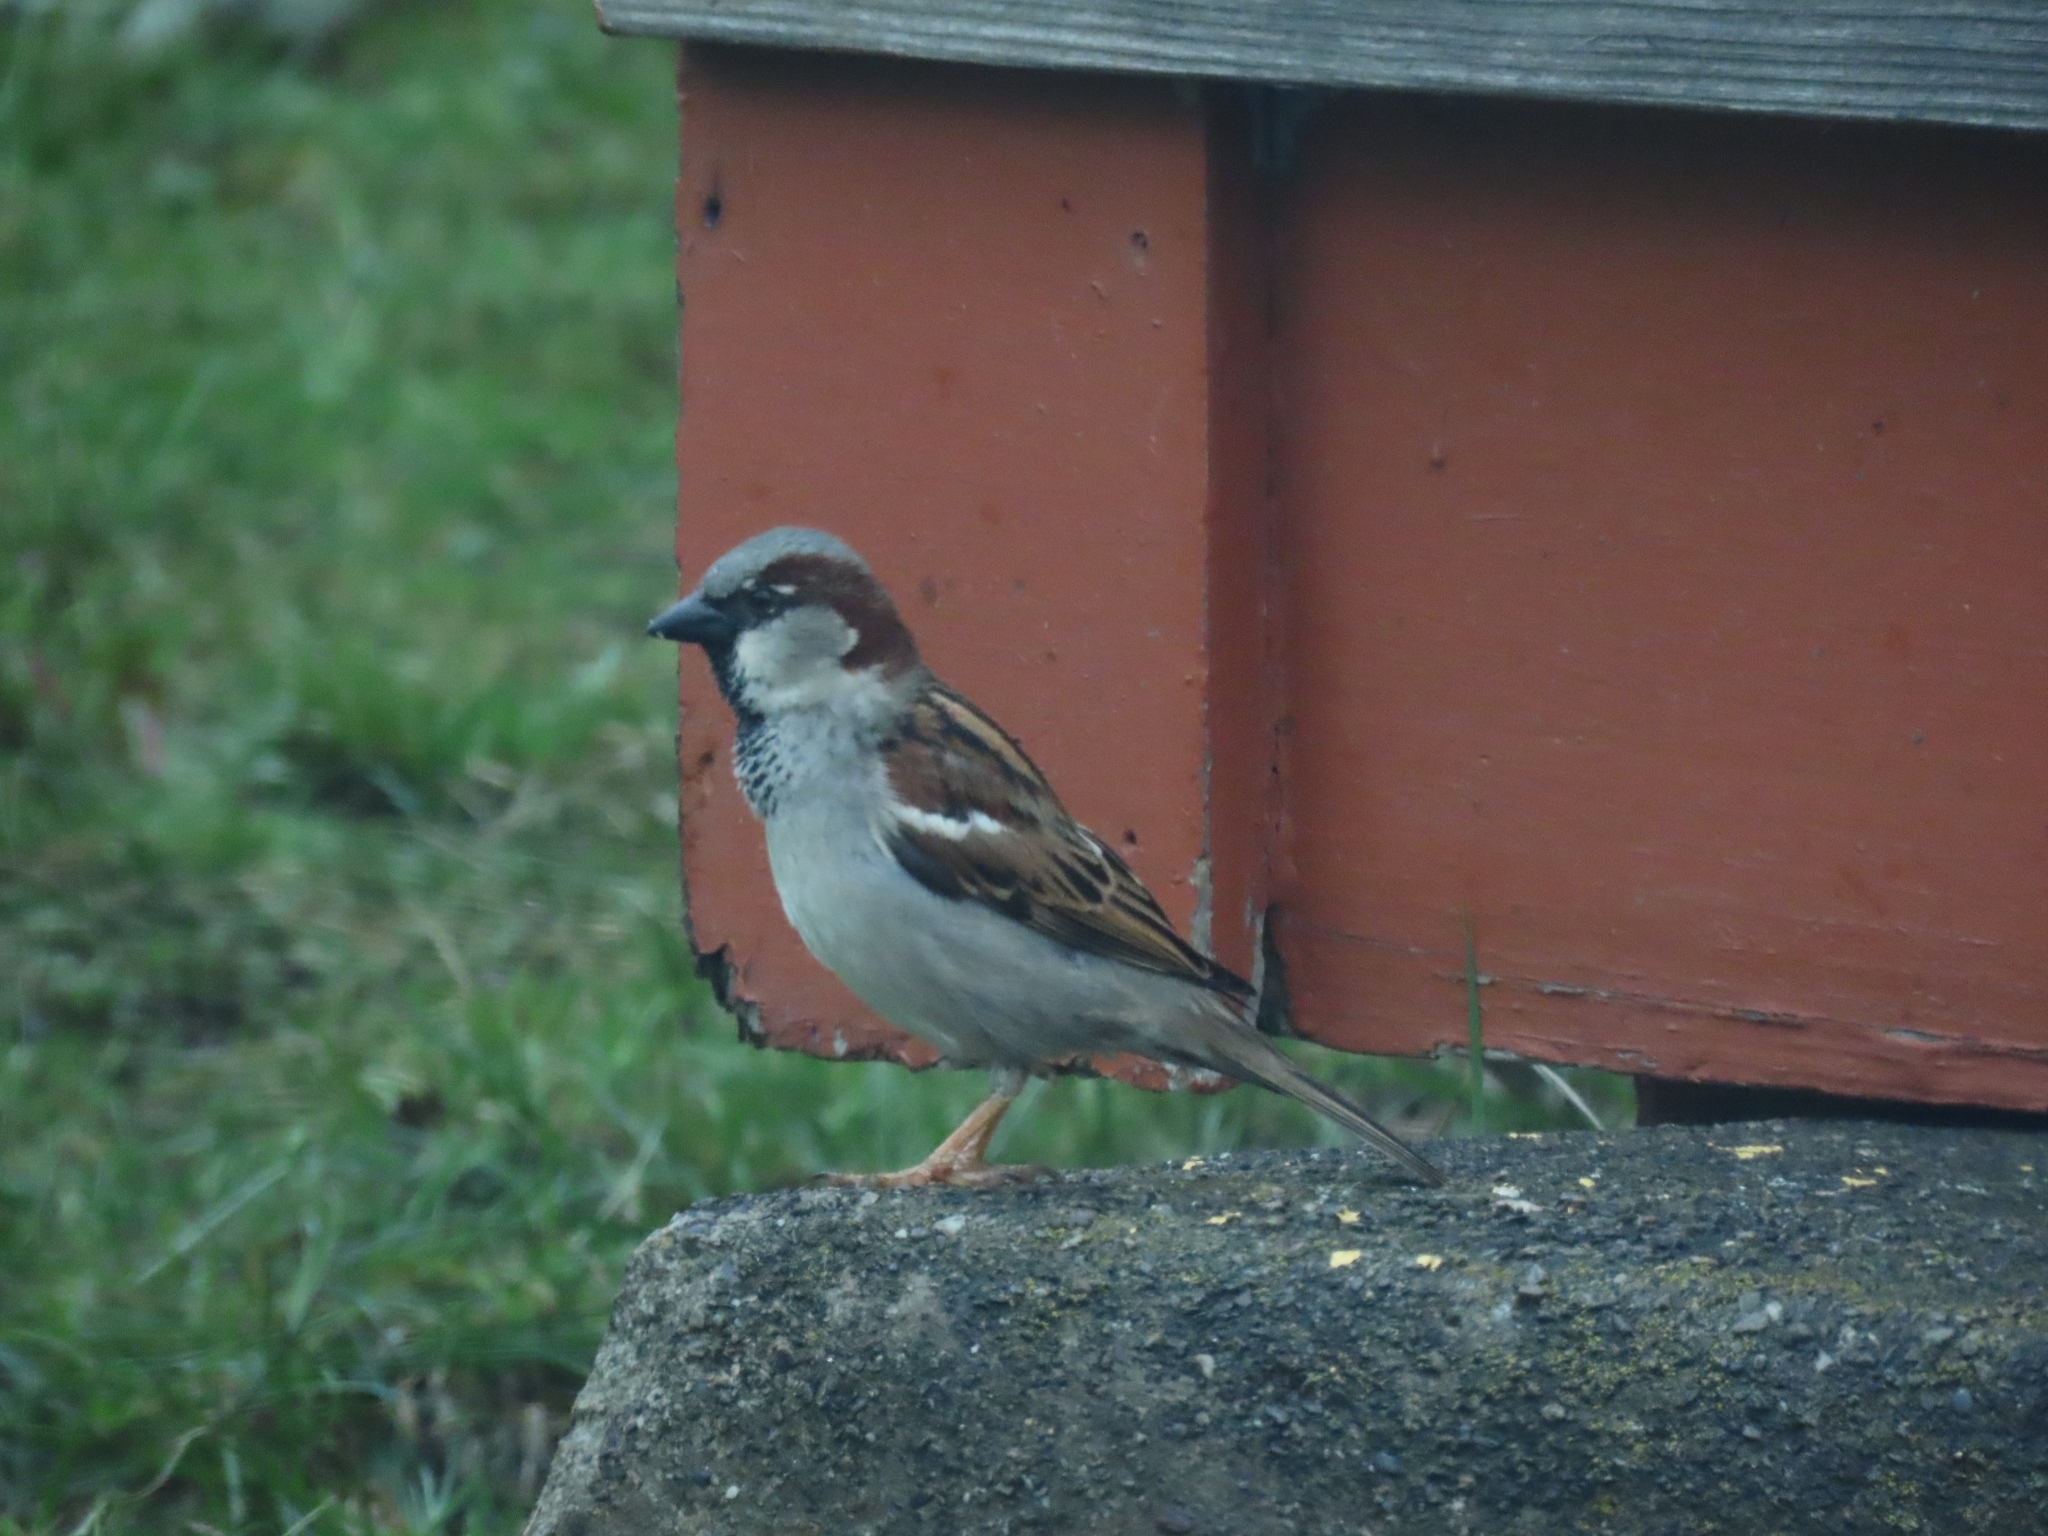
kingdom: Animalia
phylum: Chordata
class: Aves
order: Passeriformes
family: Passeridae
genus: Passer
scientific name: Passer domesticus
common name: House sparrow
